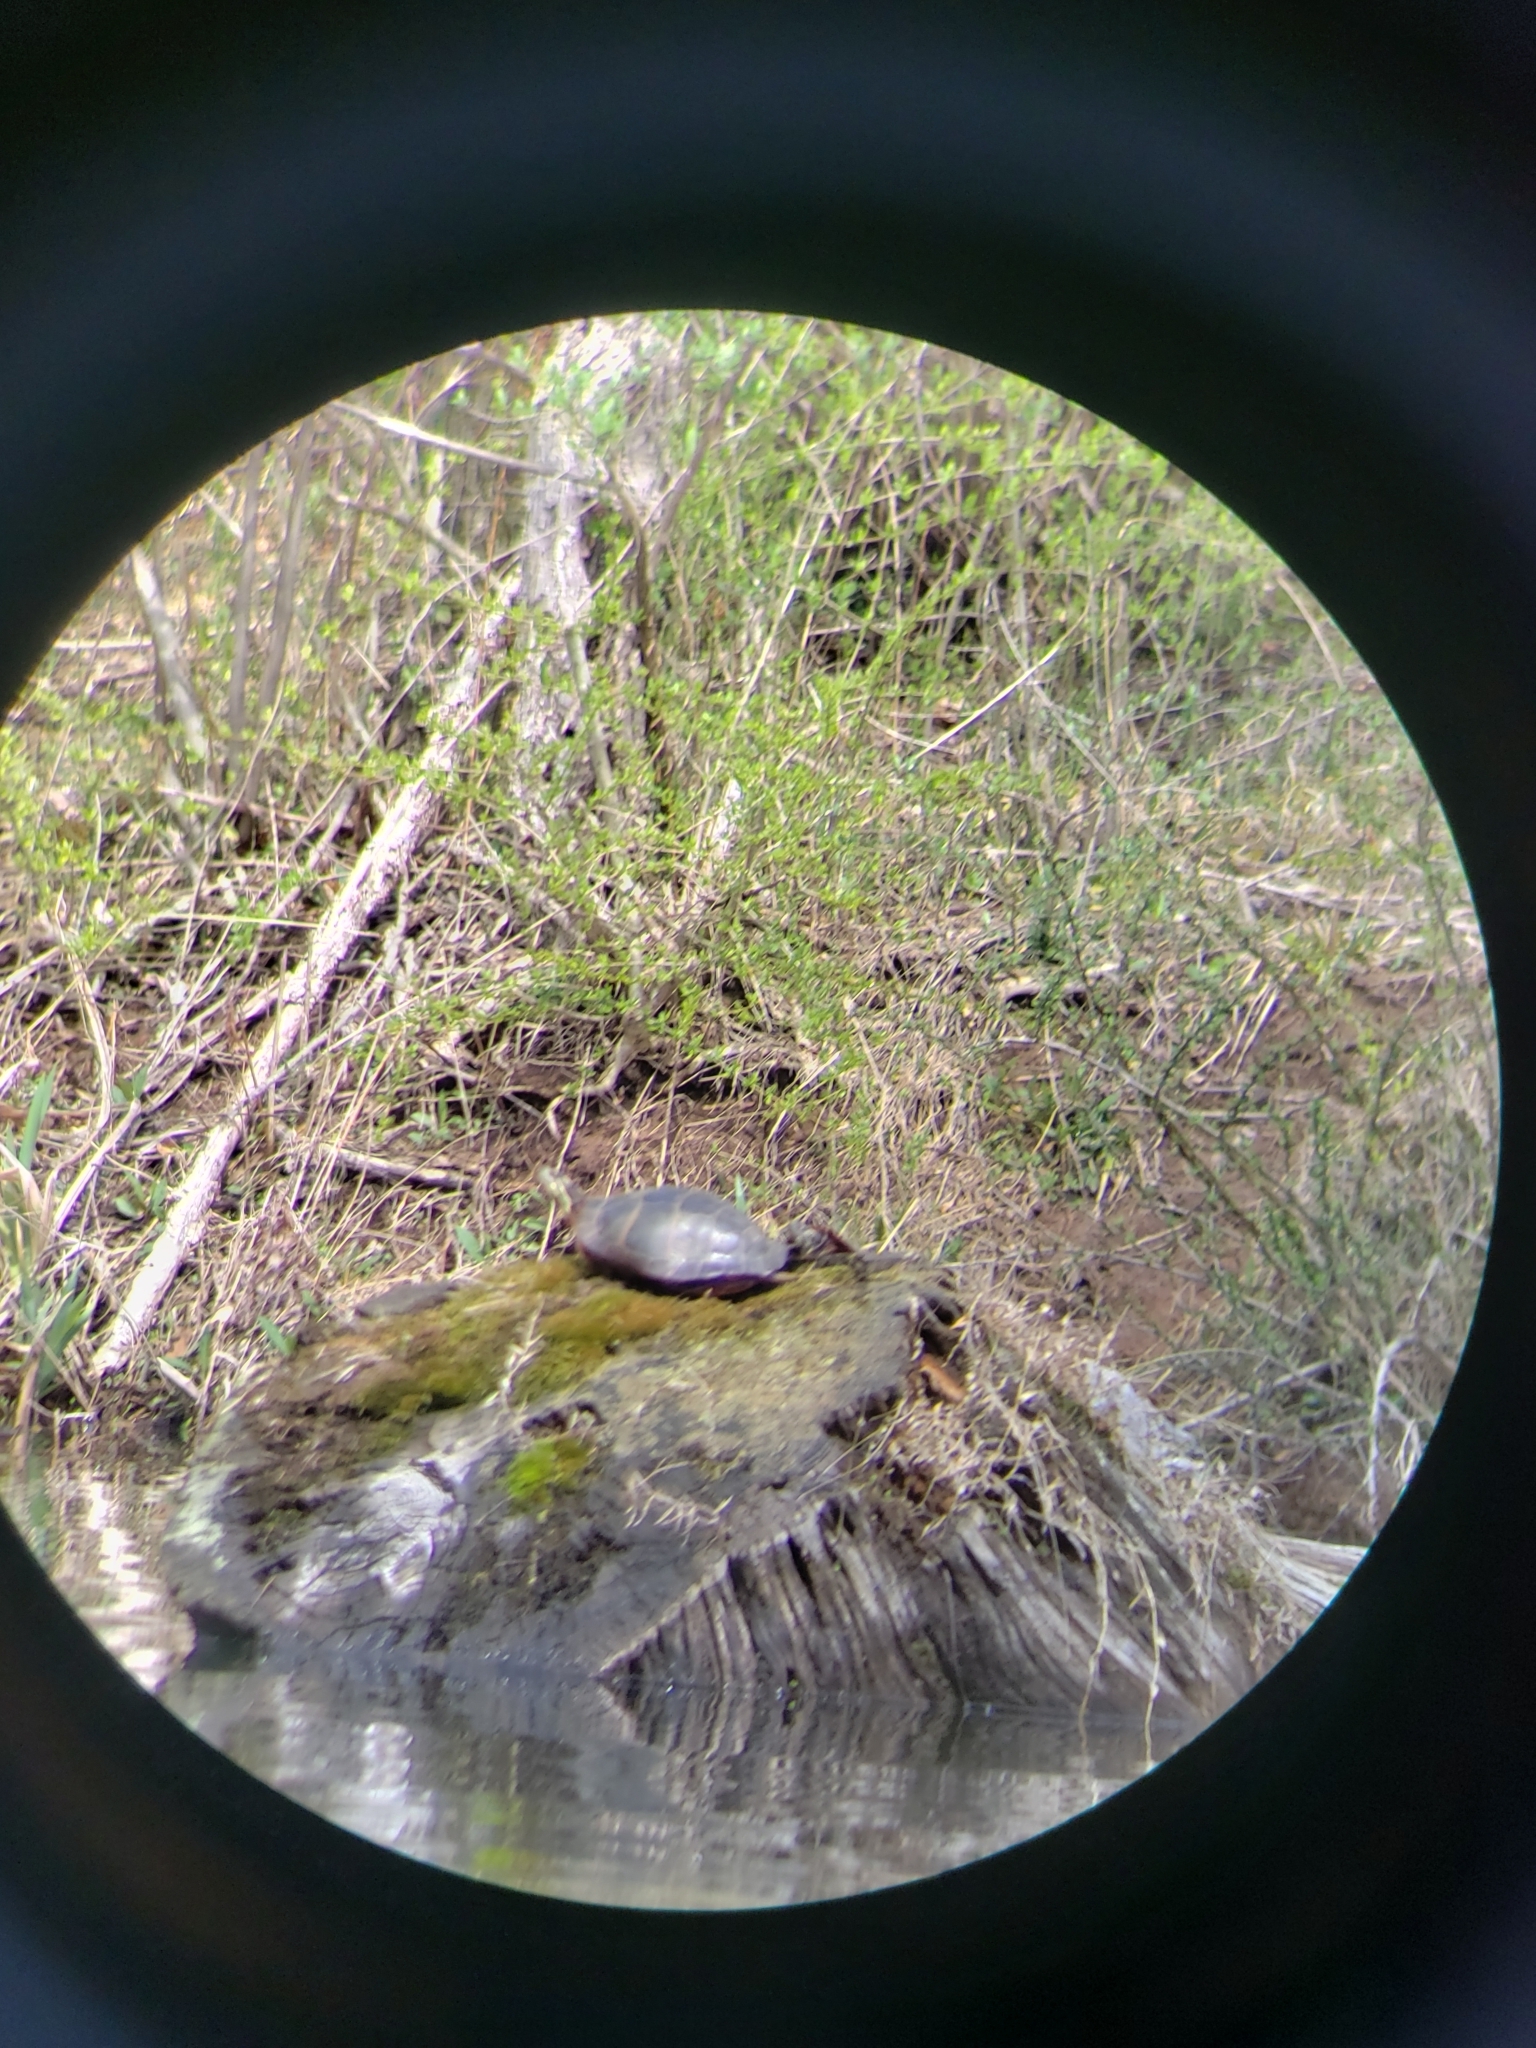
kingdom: Animalia
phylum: Chordata
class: Testudines
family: Emydidae
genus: Chrysemys
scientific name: Chrysemys picta
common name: Painted turtle
